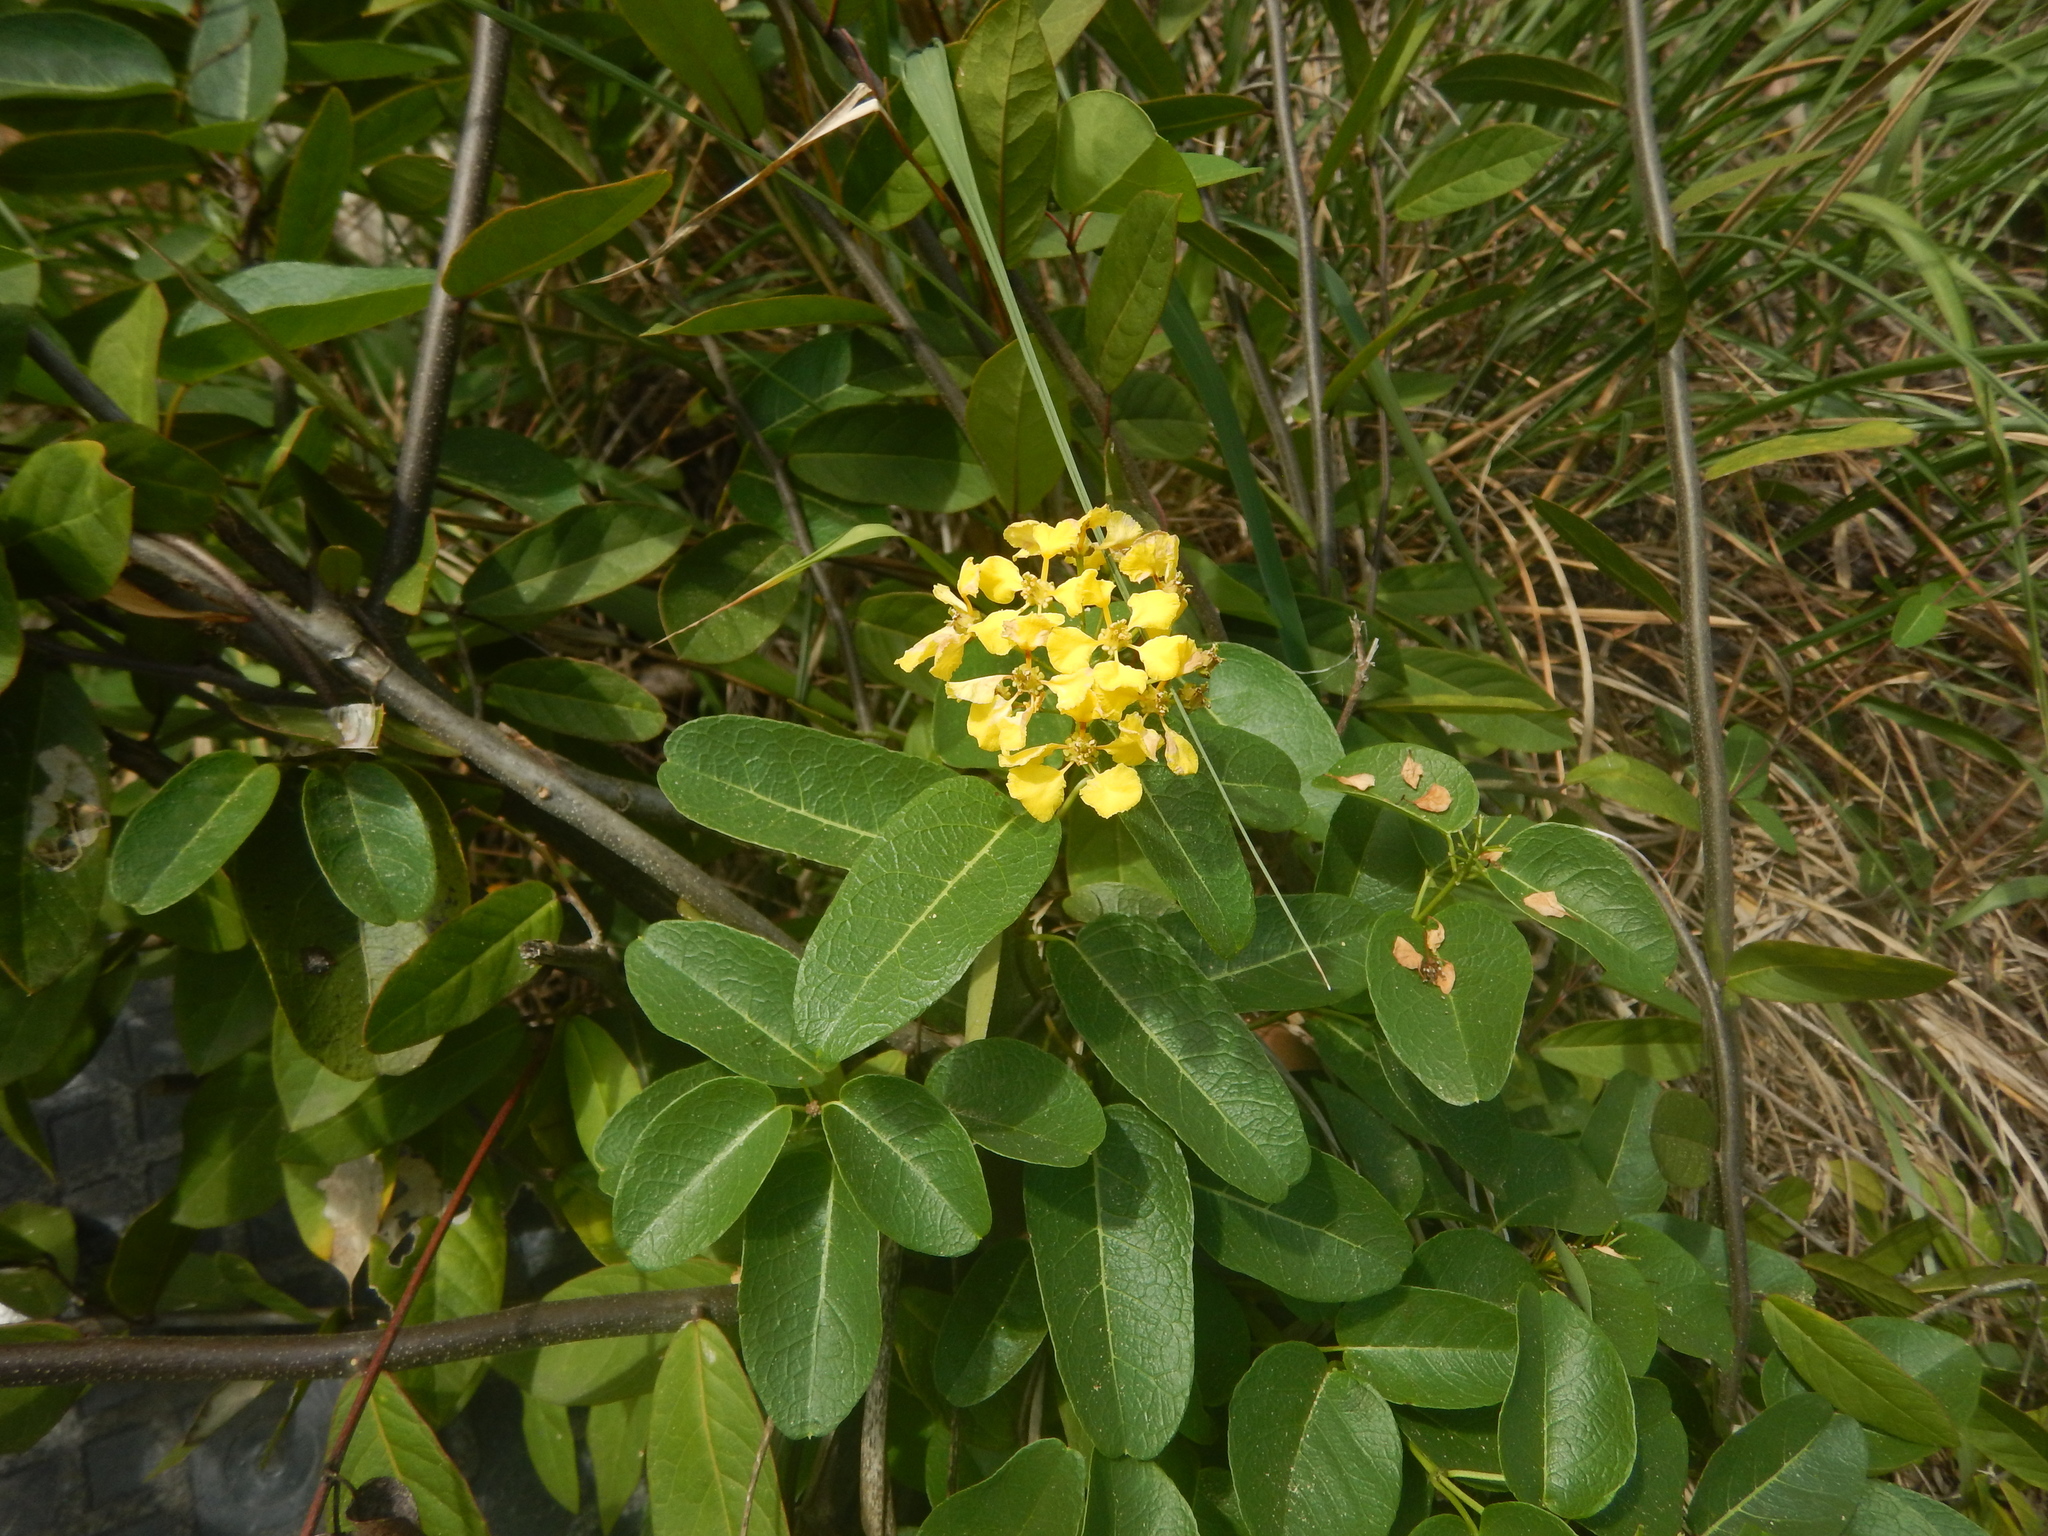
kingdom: Plantae
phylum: Tracheophyta
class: Magnoliopsida
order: Malpighiales
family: Malpighiaceae
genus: Stigmaphyllon
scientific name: Stigmaphyllon emarginatum
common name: Monarch amazonvine
